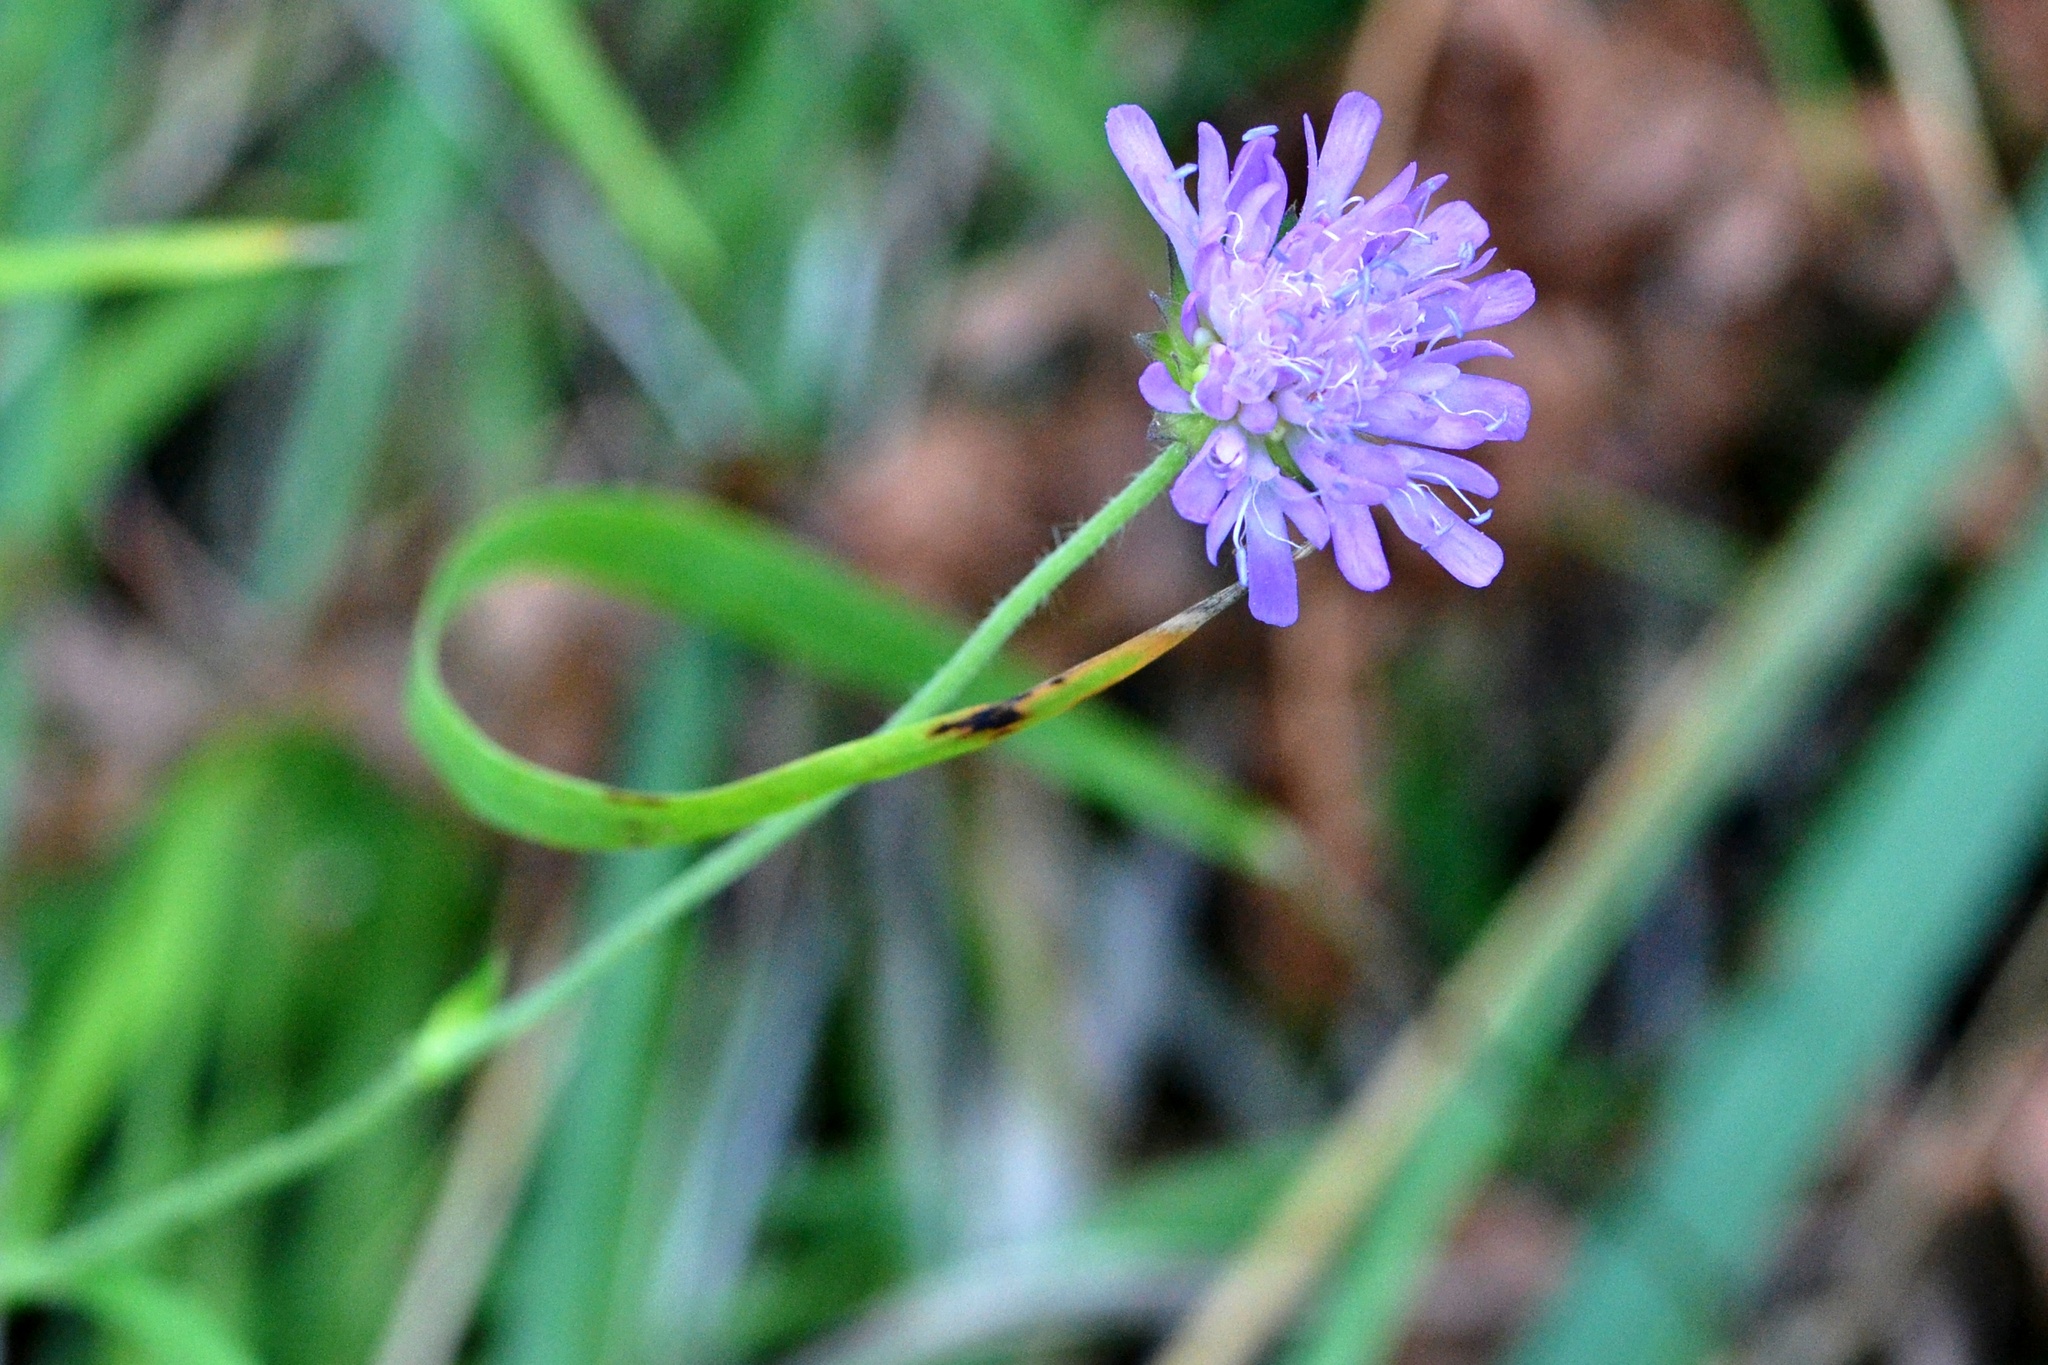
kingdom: Plantae
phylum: Tracheophyta
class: Magnoliopsida
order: Dipsacales
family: Caprifoliaceae
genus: Knautia
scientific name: Knautia arvensis
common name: Field scabiosa
